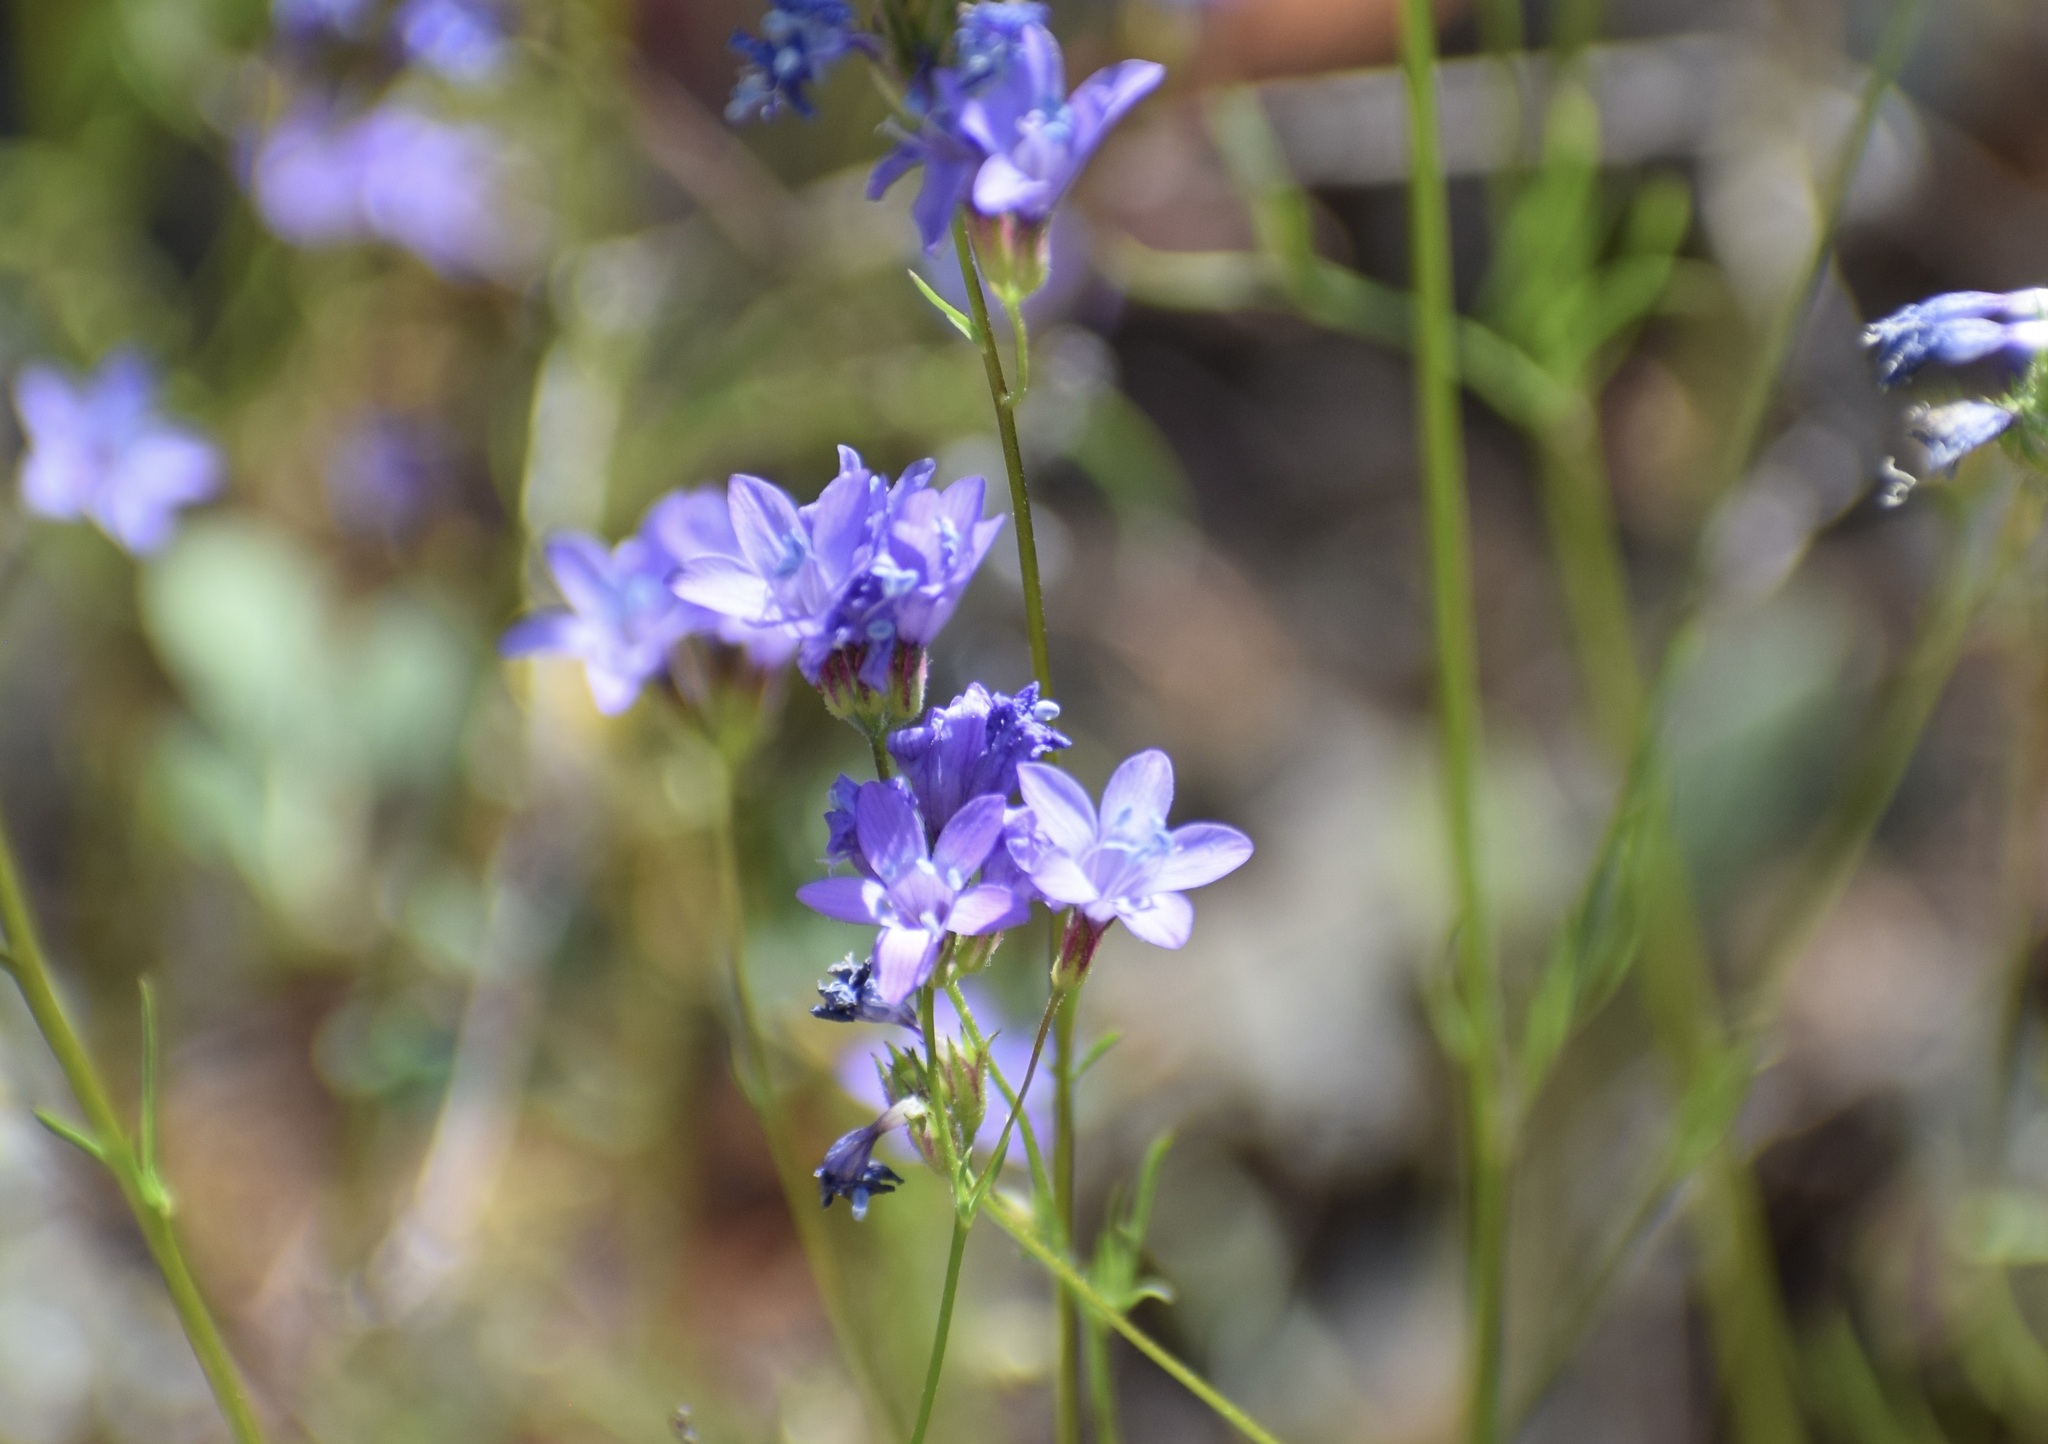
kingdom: Plantae
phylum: Tracheophyta
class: Magnoliopsida
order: Ericales
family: Polemoniaceae
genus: Gilia
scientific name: Gilia achilleifolia
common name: California gily-flower
